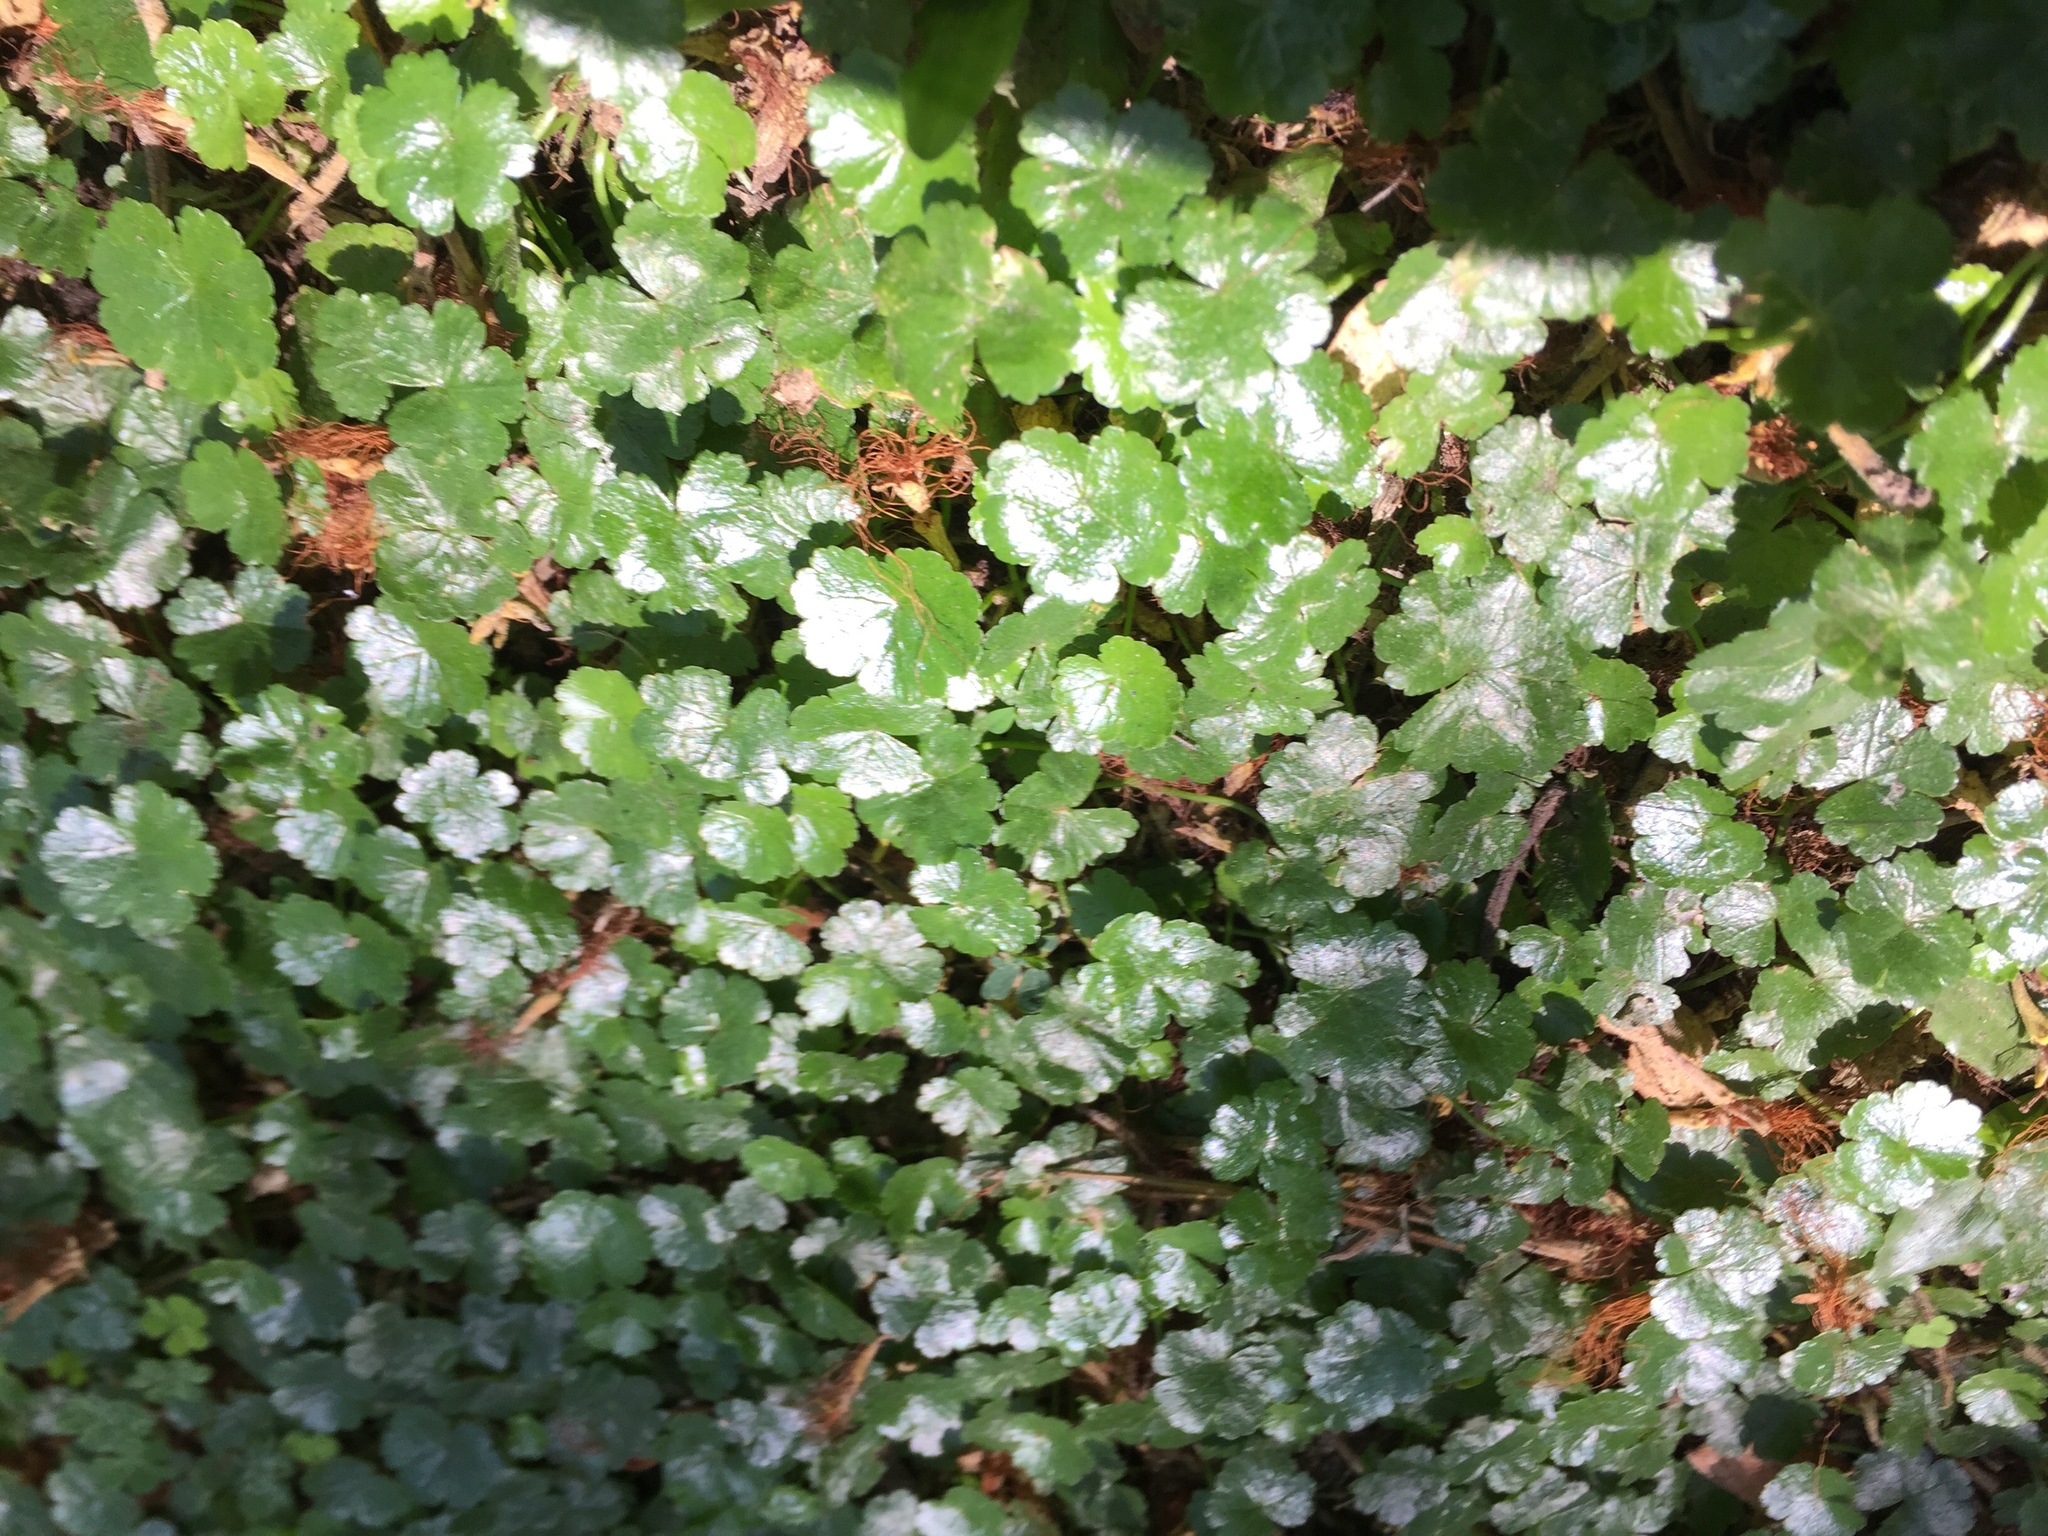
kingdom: Plantae
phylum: Tracheophyta
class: Magnoliopsida
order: Apiales
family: Araliaceae
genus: Hydrocotyle
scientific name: Hydrocotyle sibthorpioides
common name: Lawn marshpennywort
